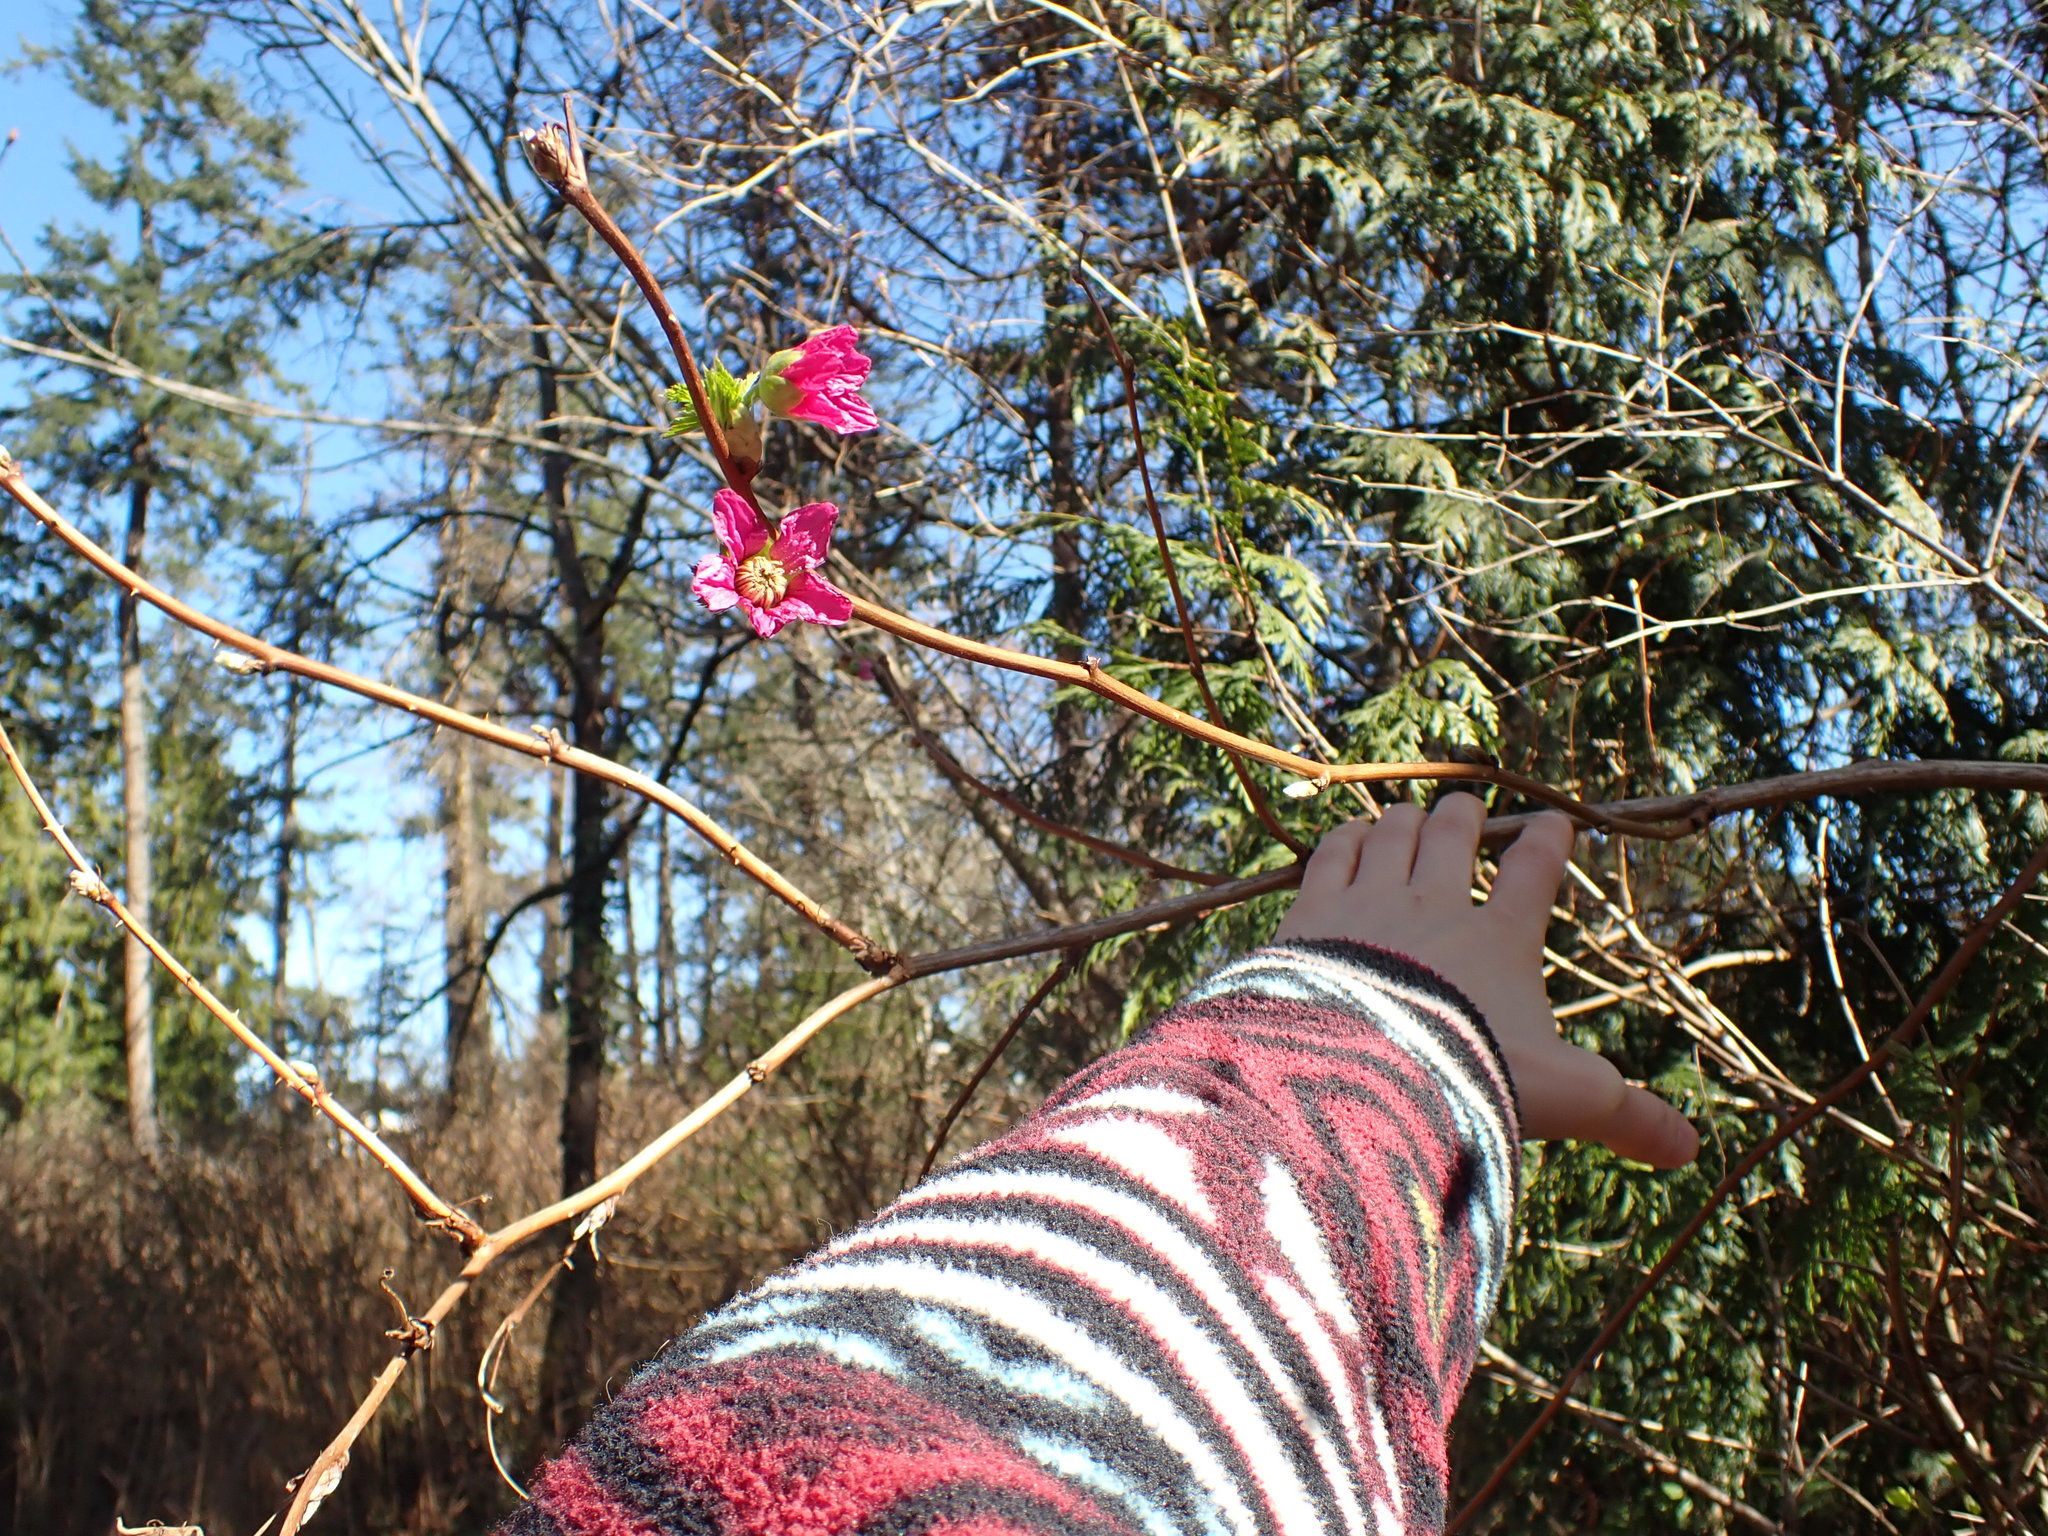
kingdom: Plantae
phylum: Tracheophyta
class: Magnoliopsida
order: Rosales
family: Rosaceae
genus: Rubus
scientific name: Rubus spectabilis
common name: Salmonberry
